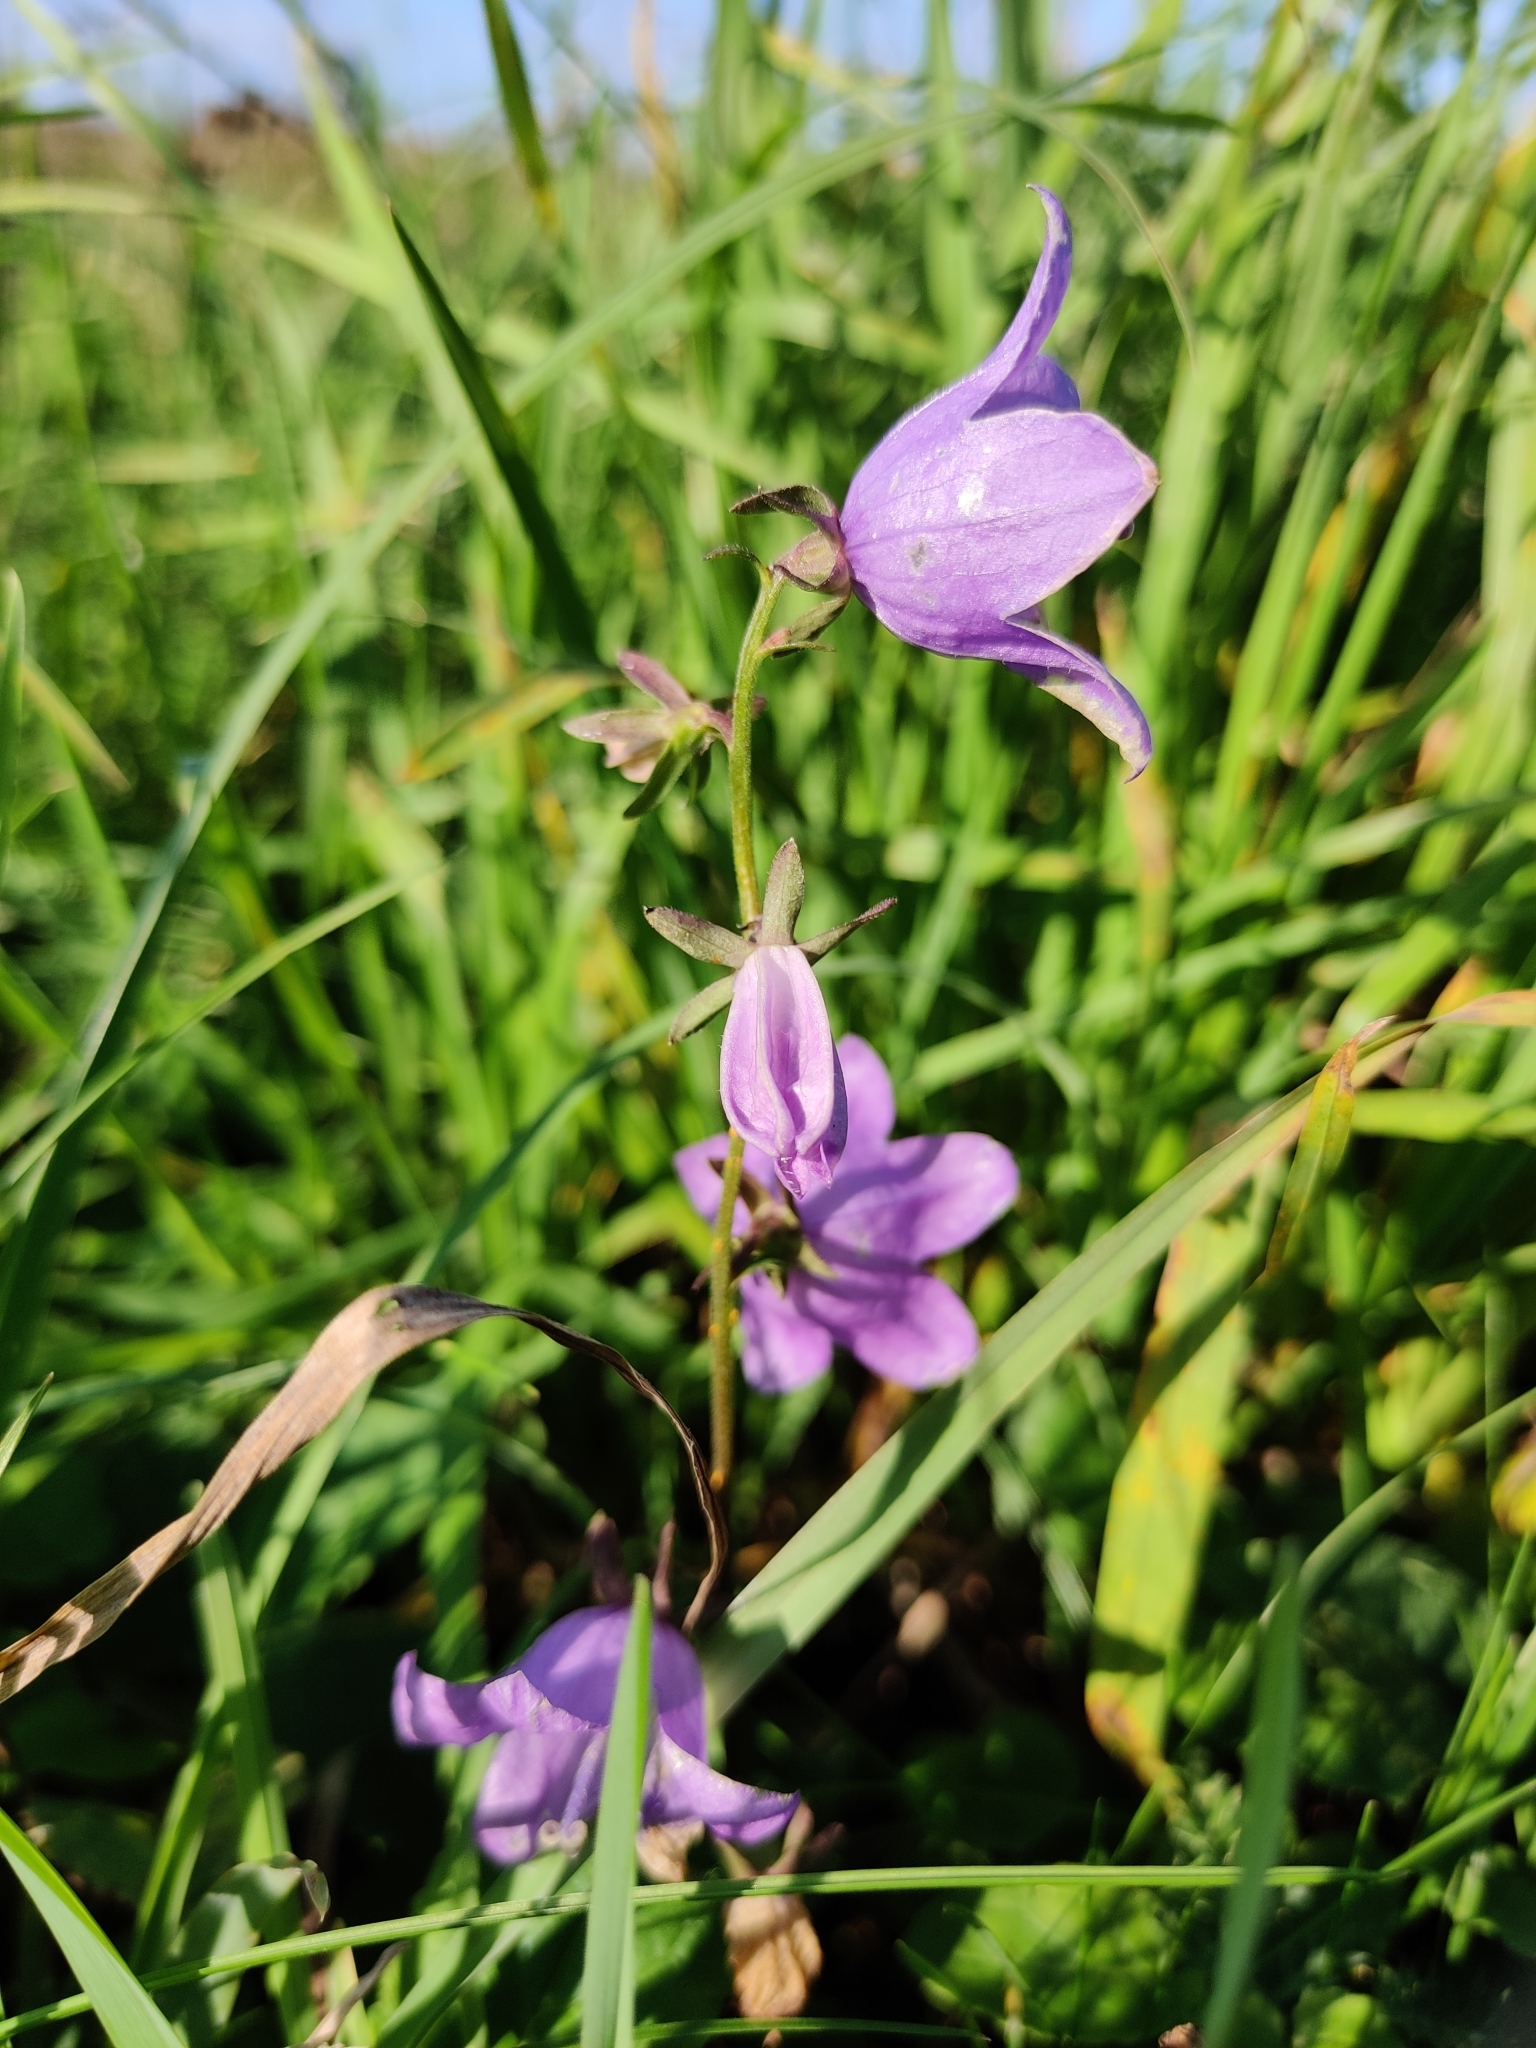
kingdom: Plantae
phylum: Tracheophyta
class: Magnoliopsida
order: Asterales
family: Campanulaceae
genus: Campanula
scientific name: Campanula rotundifolia
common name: Harebell
